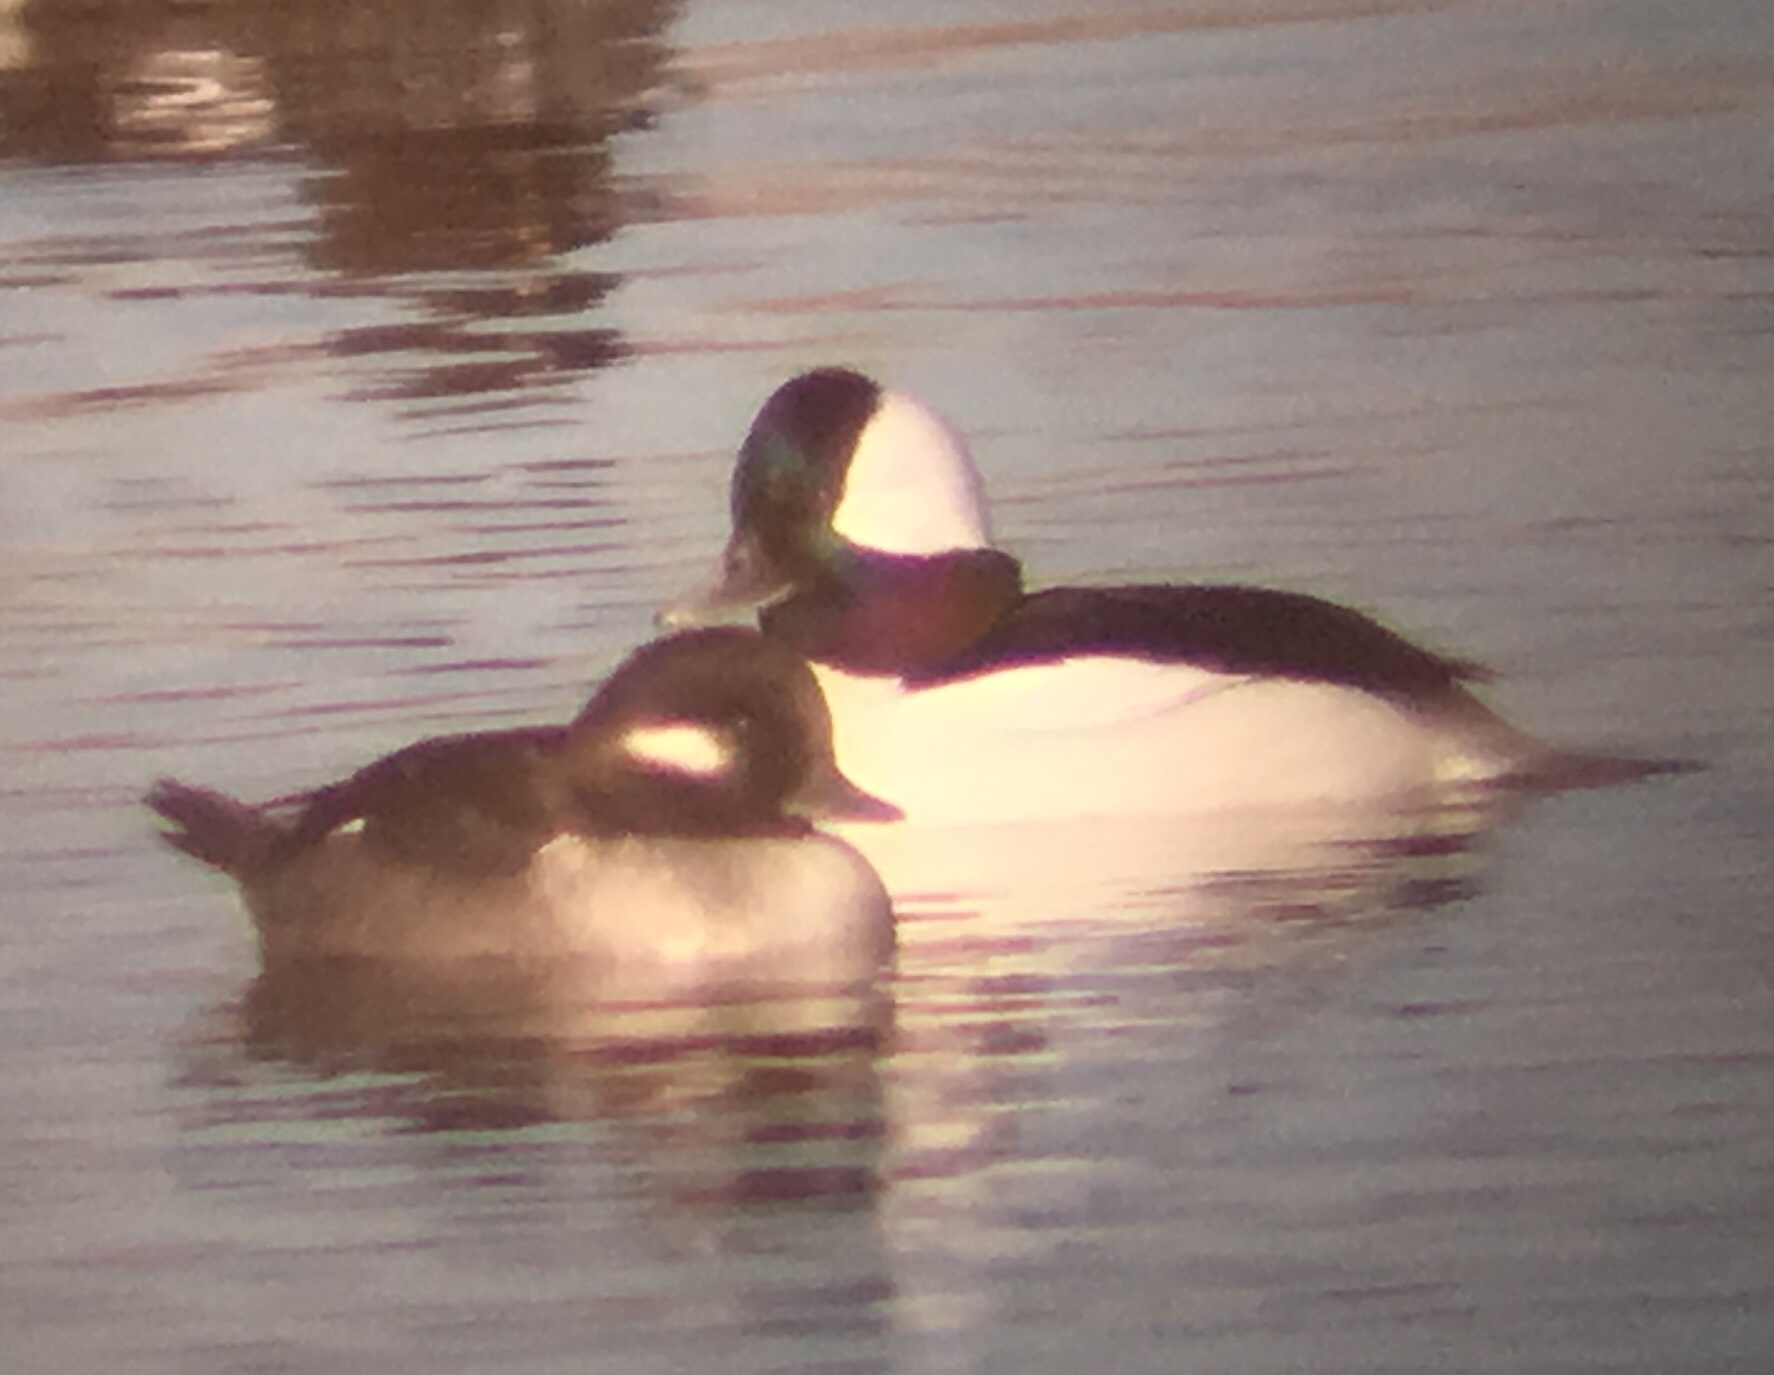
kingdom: Animalia
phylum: Chordata
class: Aves
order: Anseriformes
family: Anatidae
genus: Bucephala
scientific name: Bucephala albeola
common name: Bufflehead
